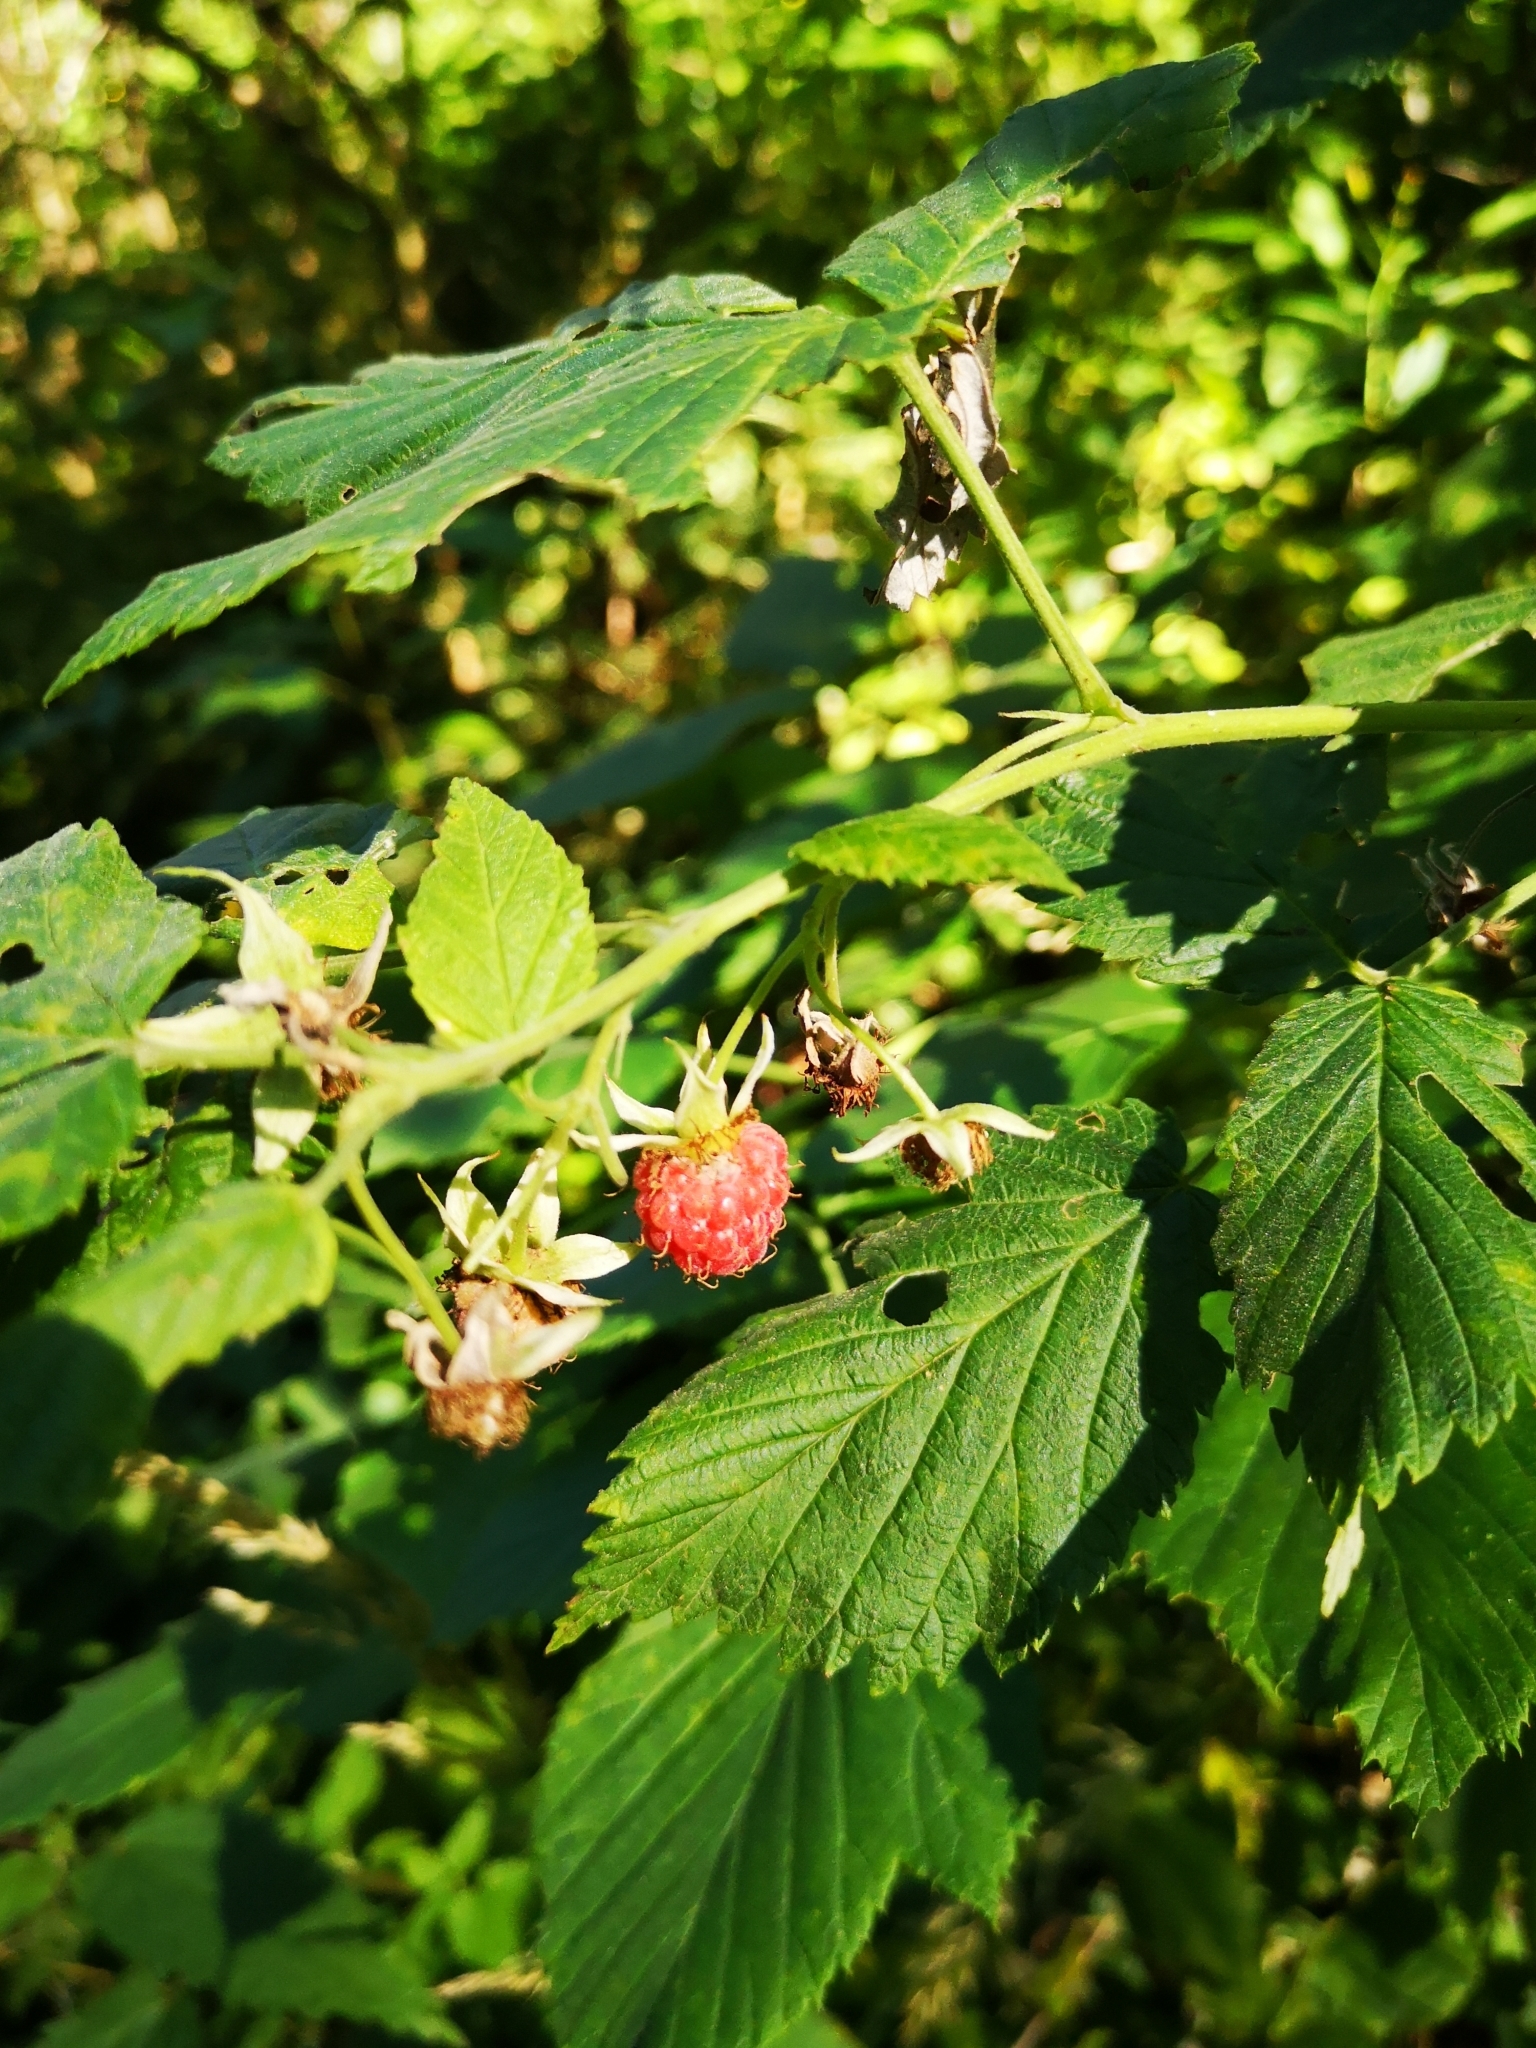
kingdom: Plantae
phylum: Tracheophyta
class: Magnoliopsida
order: Rosales
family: Rosaceae
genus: Rubus
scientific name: Rubus idaeus
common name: Raspberry
